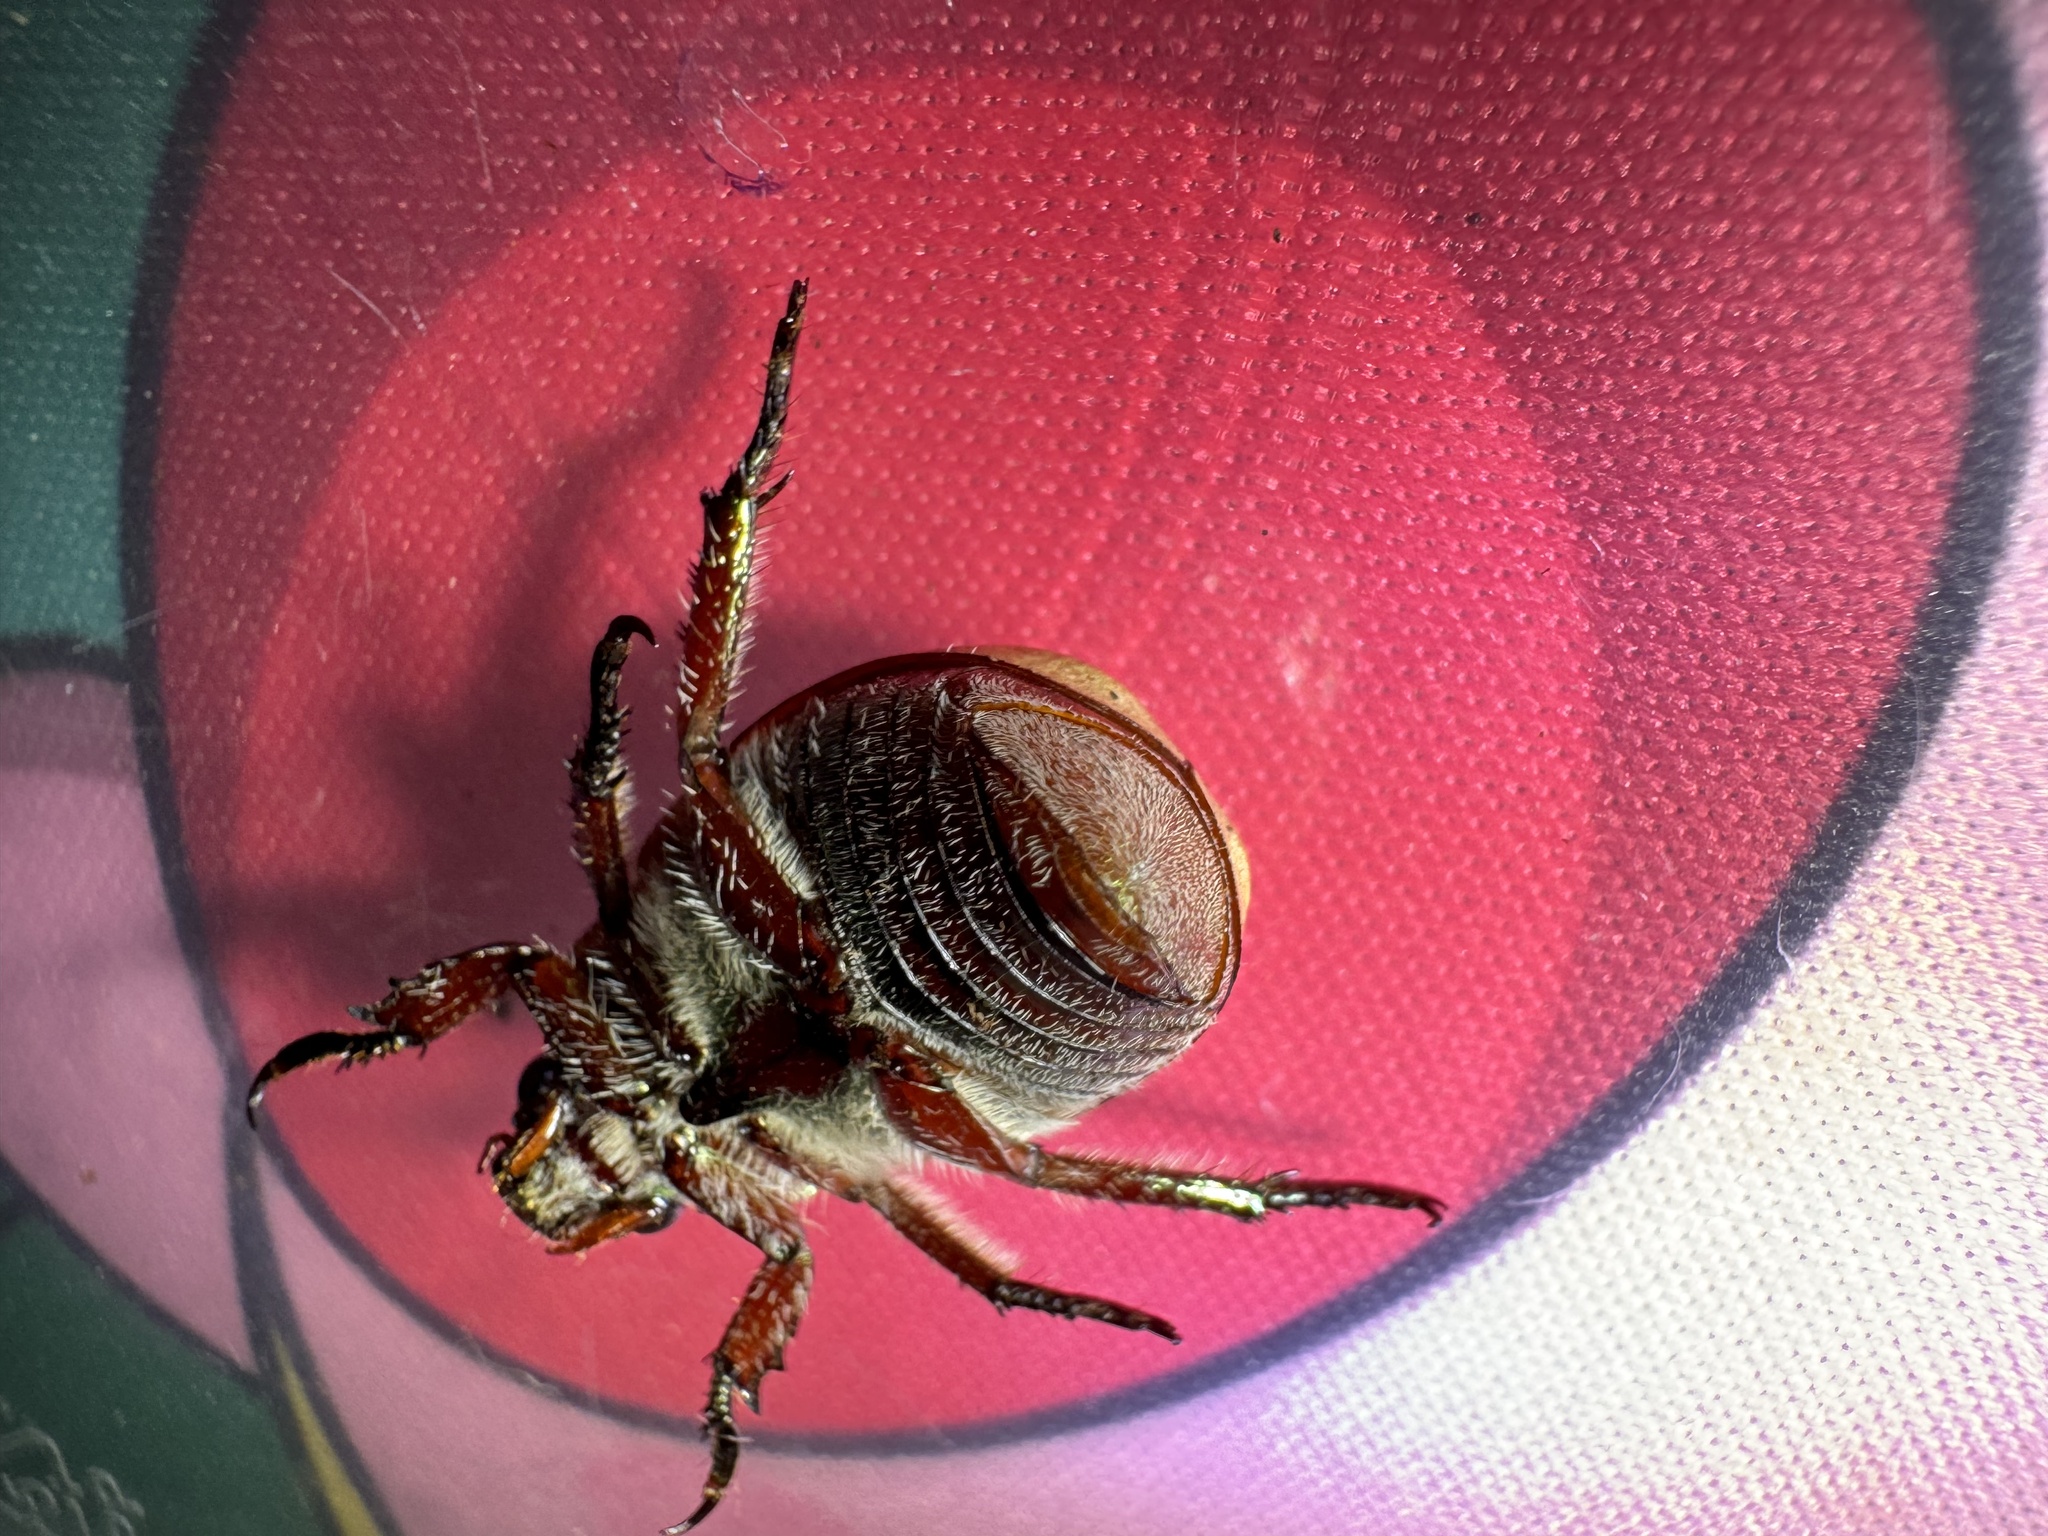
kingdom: Animalia
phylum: Arthropoda
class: Insecta
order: Coleoptera
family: Scarabaeidae
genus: Anoplognathus
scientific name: Anoplognathus flavipennis
